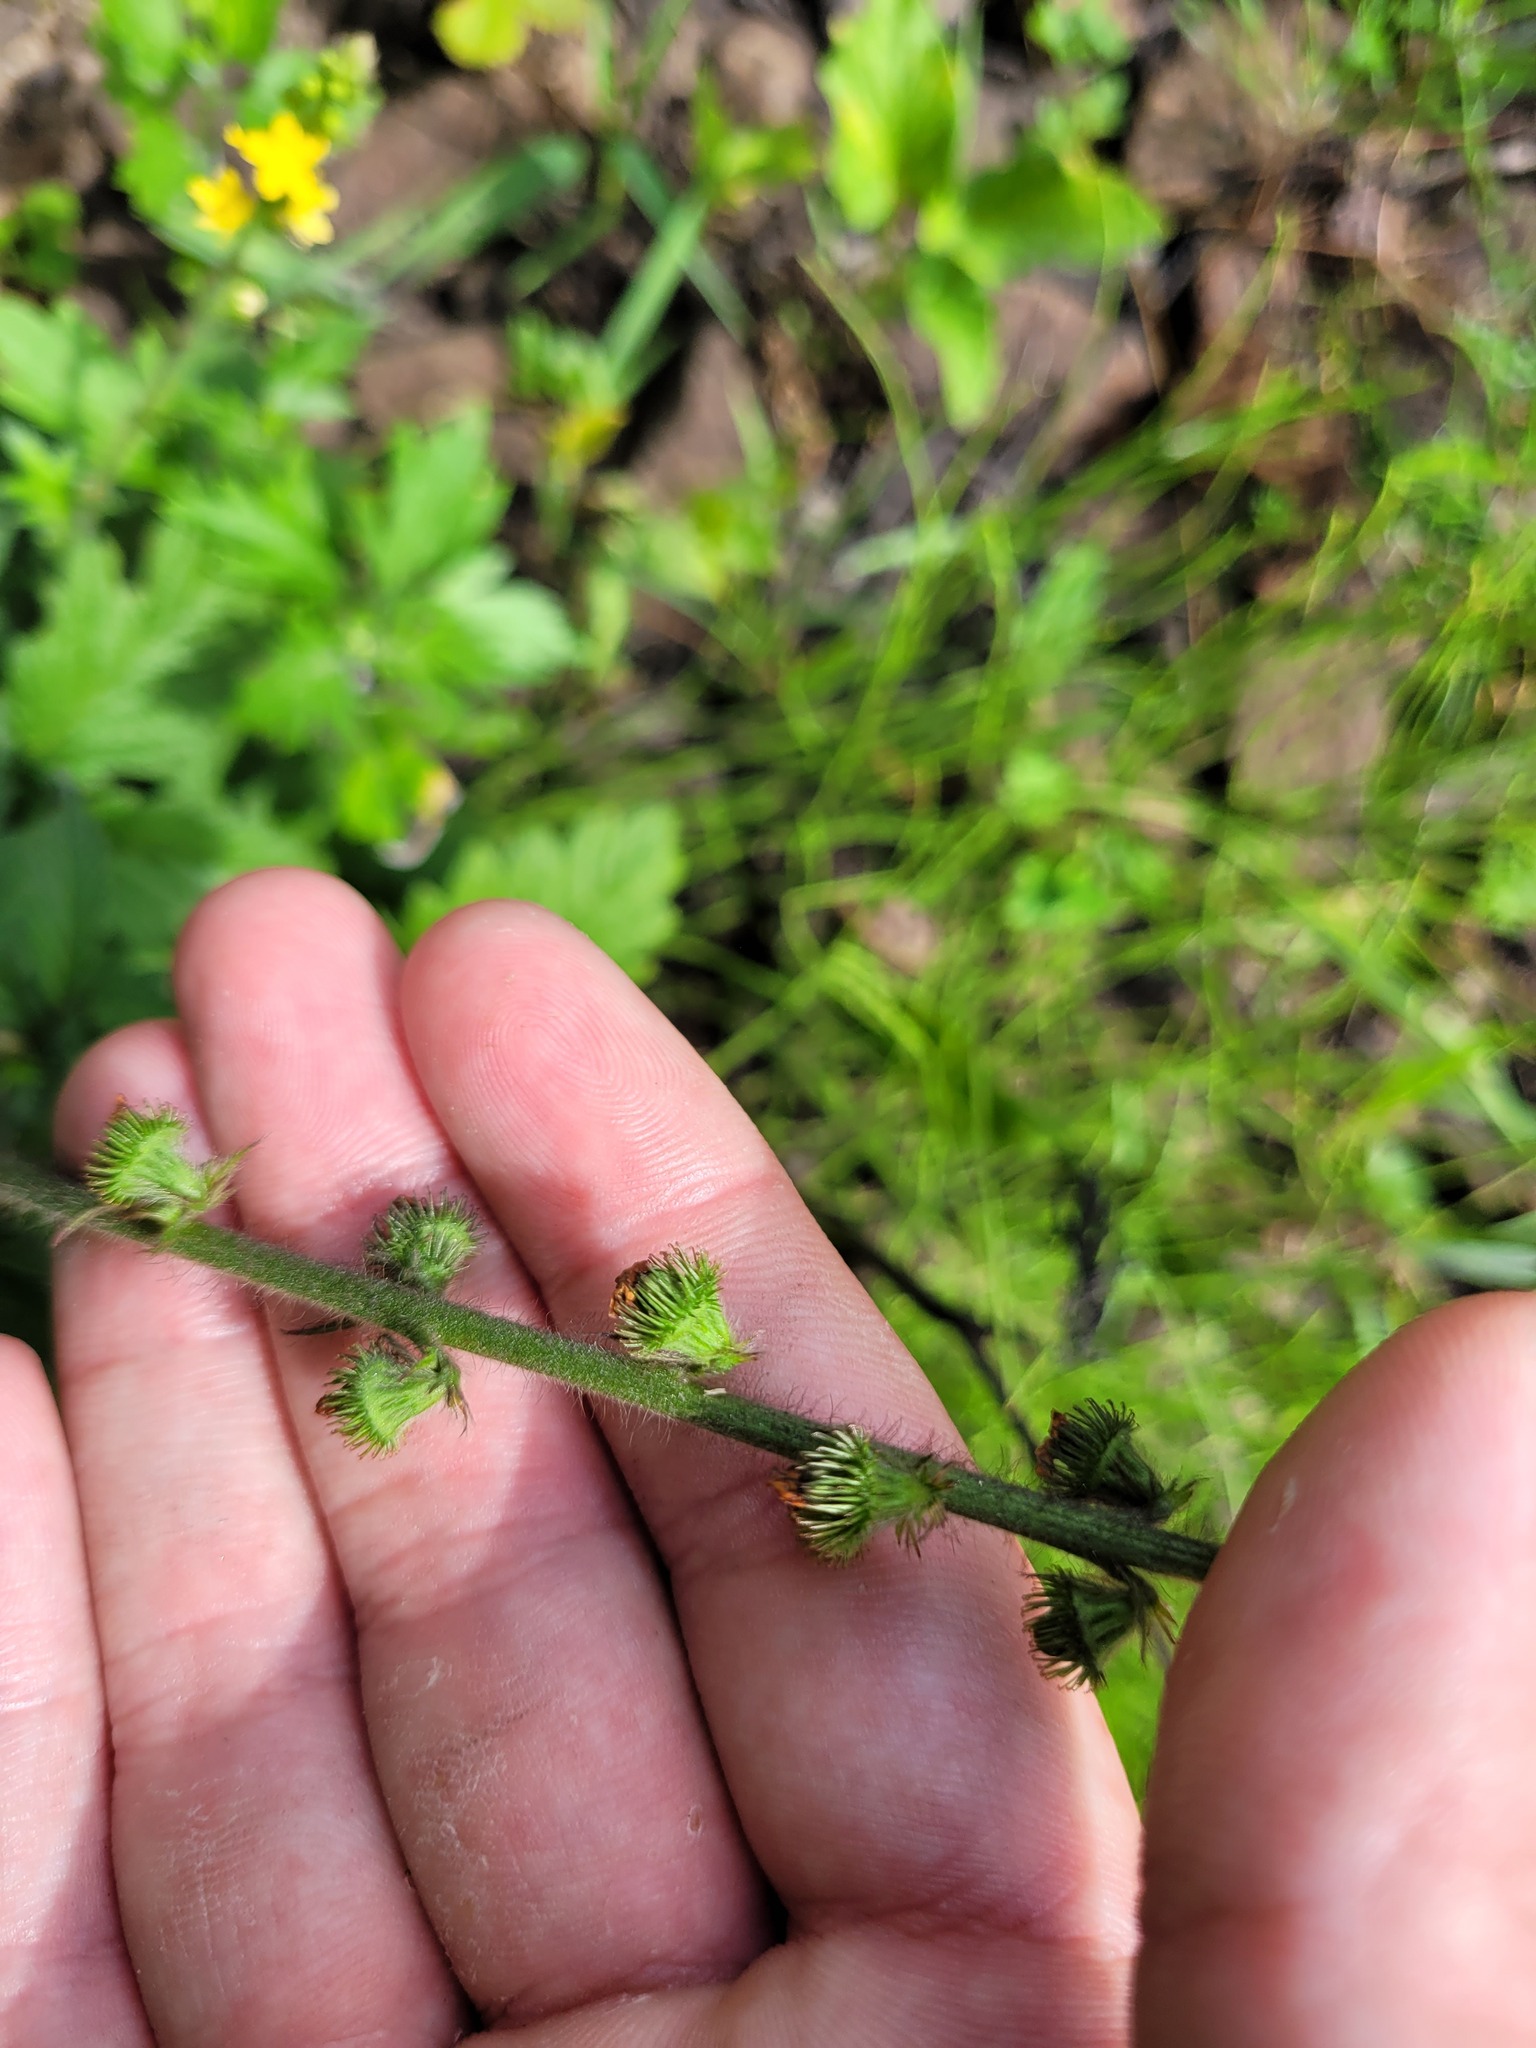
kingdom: Plantae
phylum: Tracheophyta
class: Magnoliopsida
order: Rosales
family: Rosaceae
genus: Agrimonia
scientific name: Agrimonia eupatoria
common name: Agrimony
